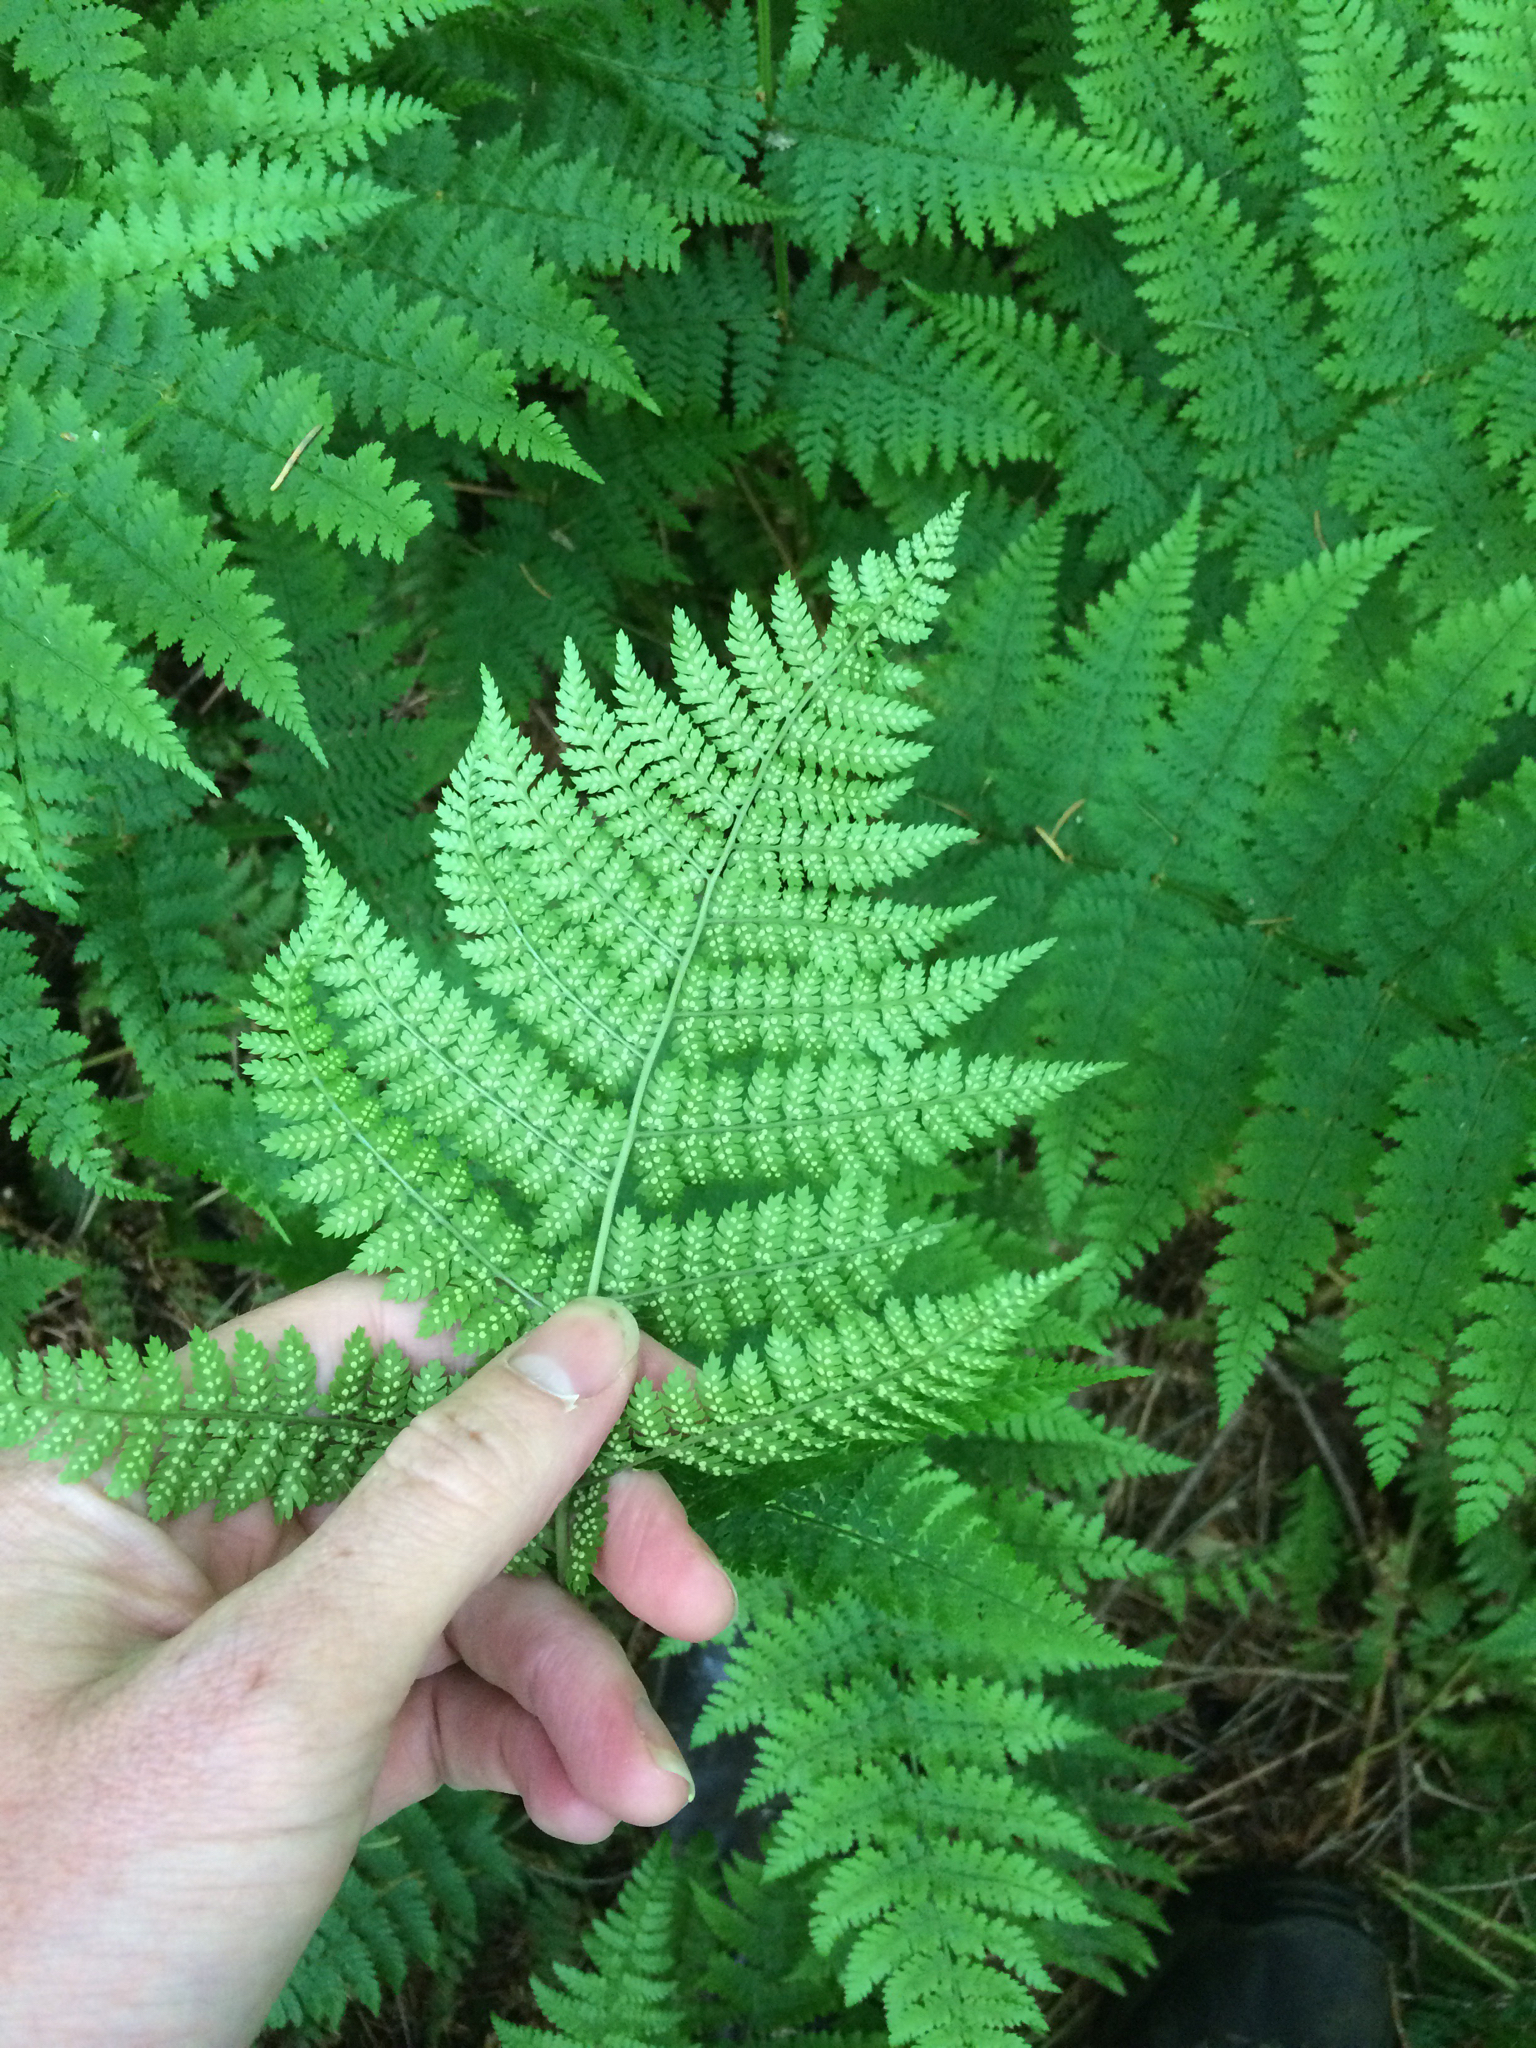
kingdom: Plantae
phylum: Tracheophyta
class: Polypodiopsida
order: Polypodiales
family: Dryopteridaceae
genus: Dryopteris
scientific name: Dryopteris intermedia
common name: Evergreen wood fern
